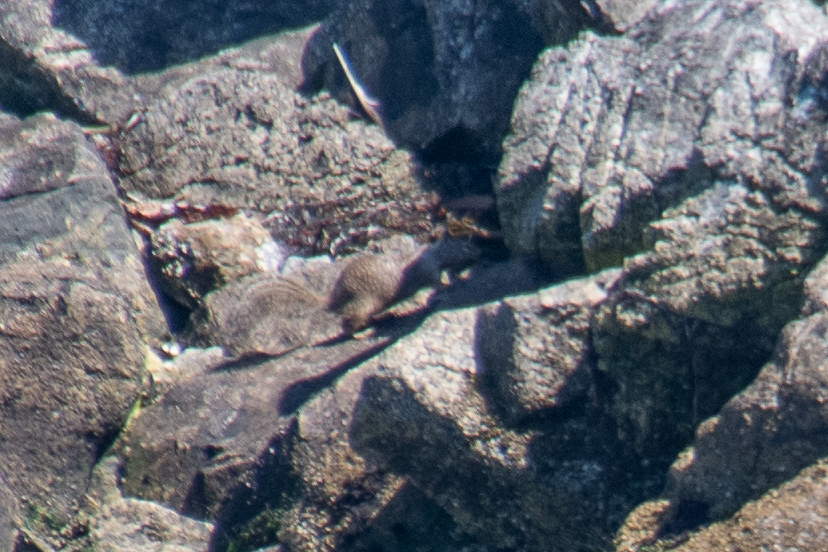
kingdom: Animalia
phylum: Chordata
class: Mammalia
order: Rodentia
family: Sciuridae
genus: Otospermophilus
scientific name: Otospermophilus beecheyi
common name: California ground squirrel
